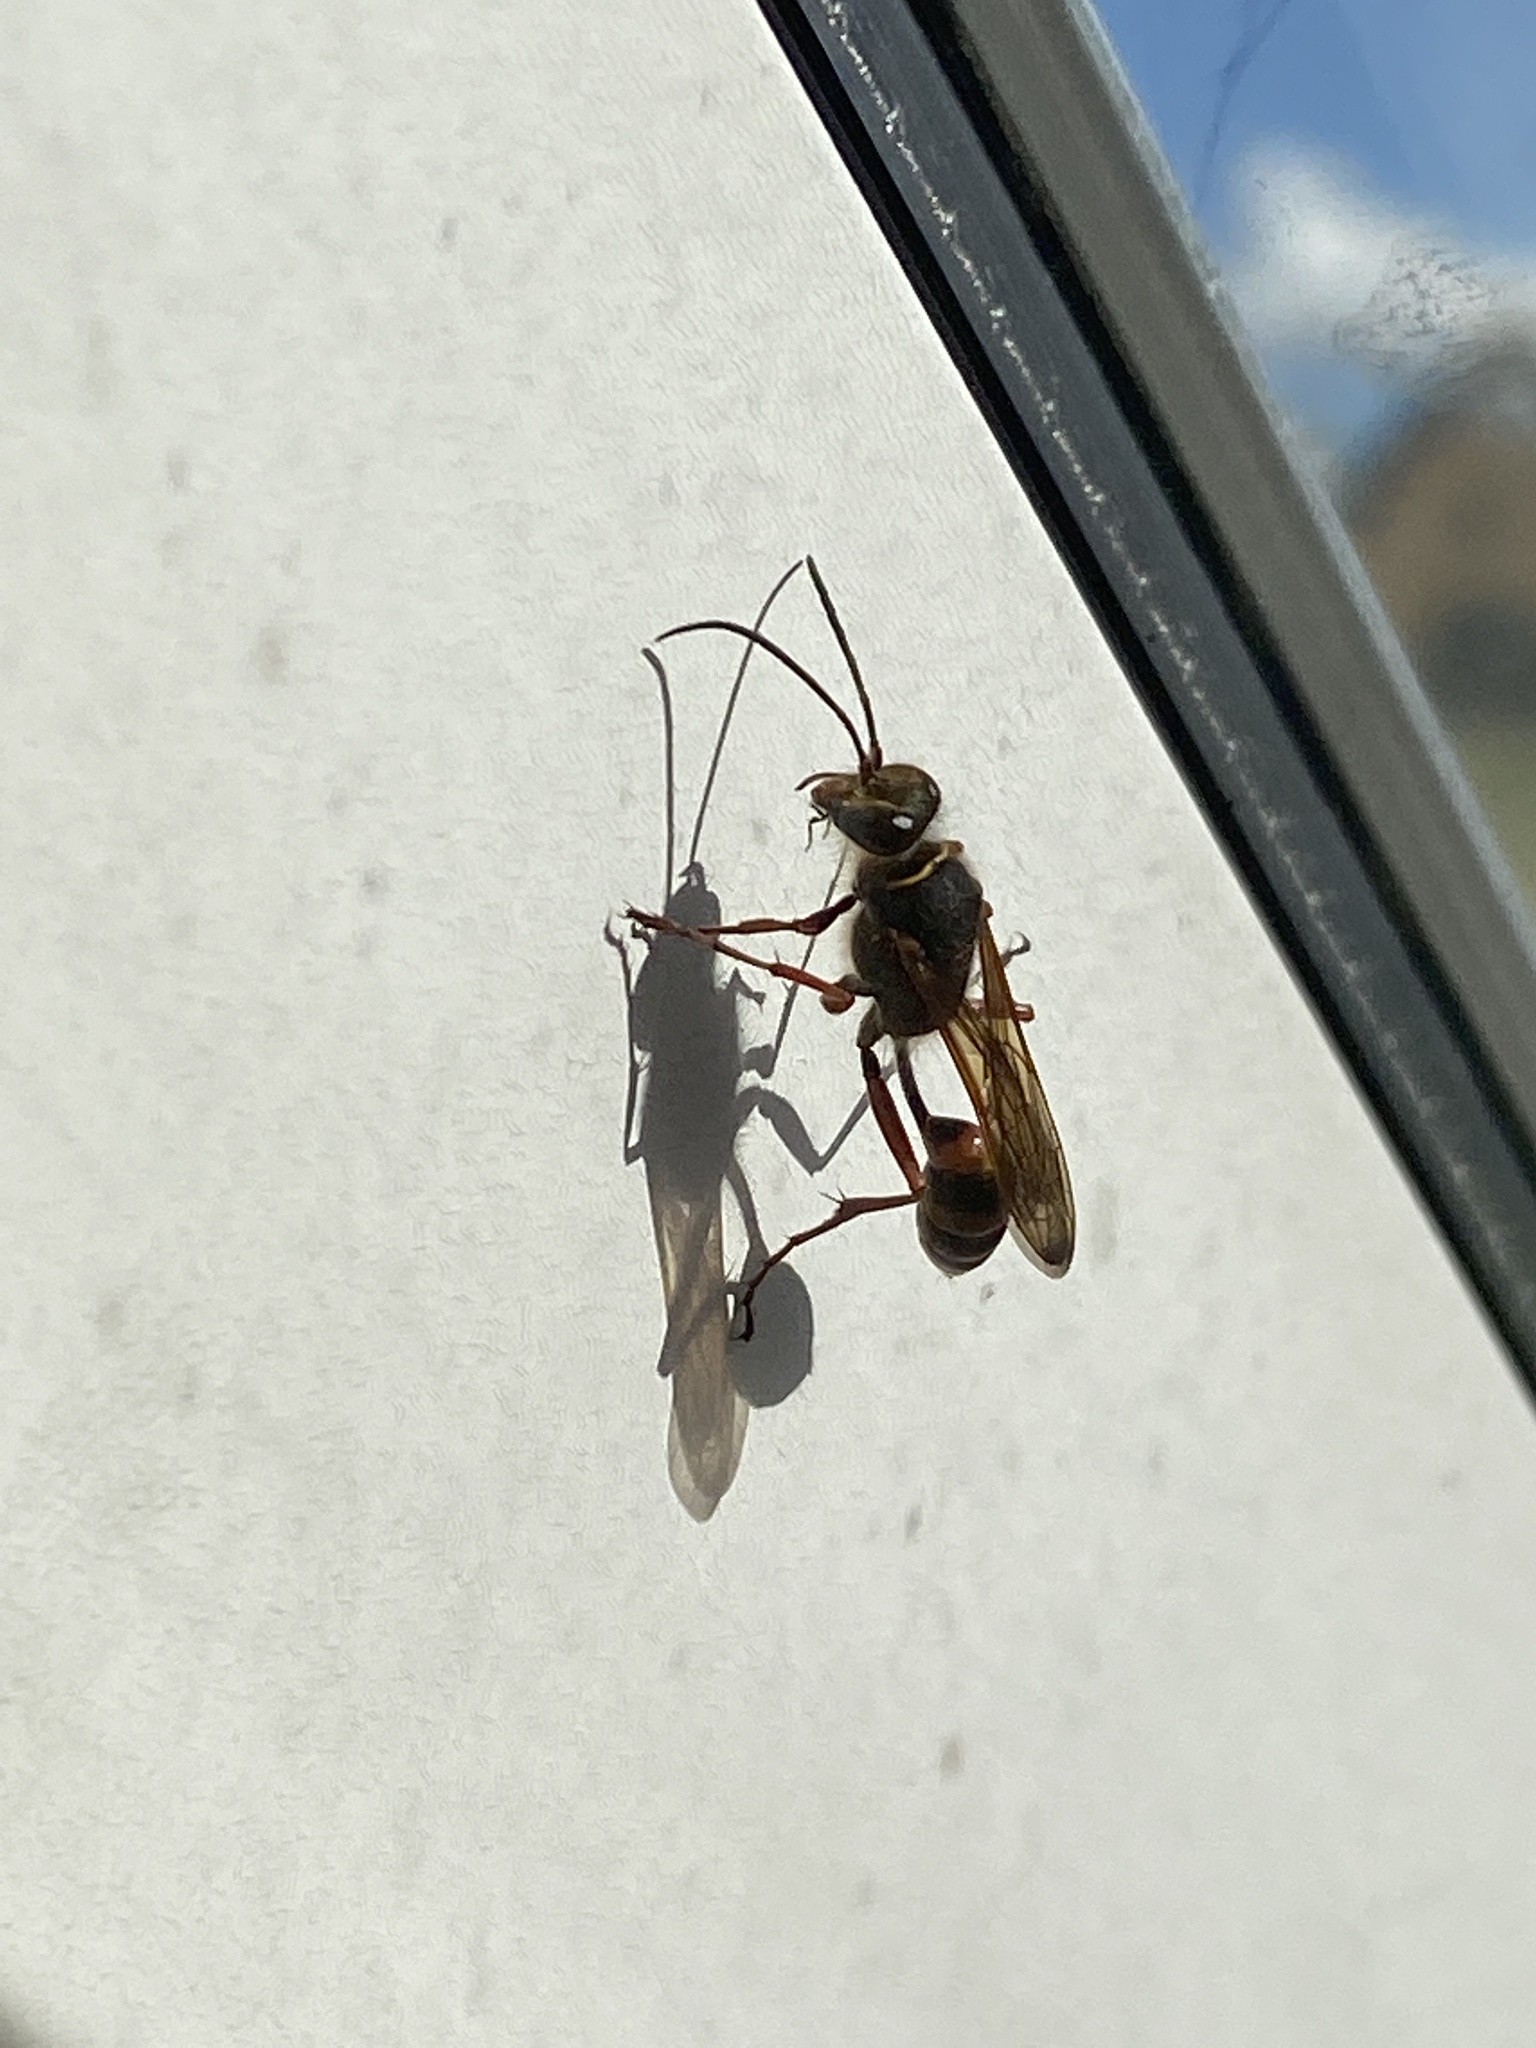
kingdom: Animalia
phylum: Arthropoda
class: Insecta
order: Hymenoptera
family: Sphecidae
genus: Sceliphron
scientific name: Sceliphron curvatum
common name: Pèlopèe
